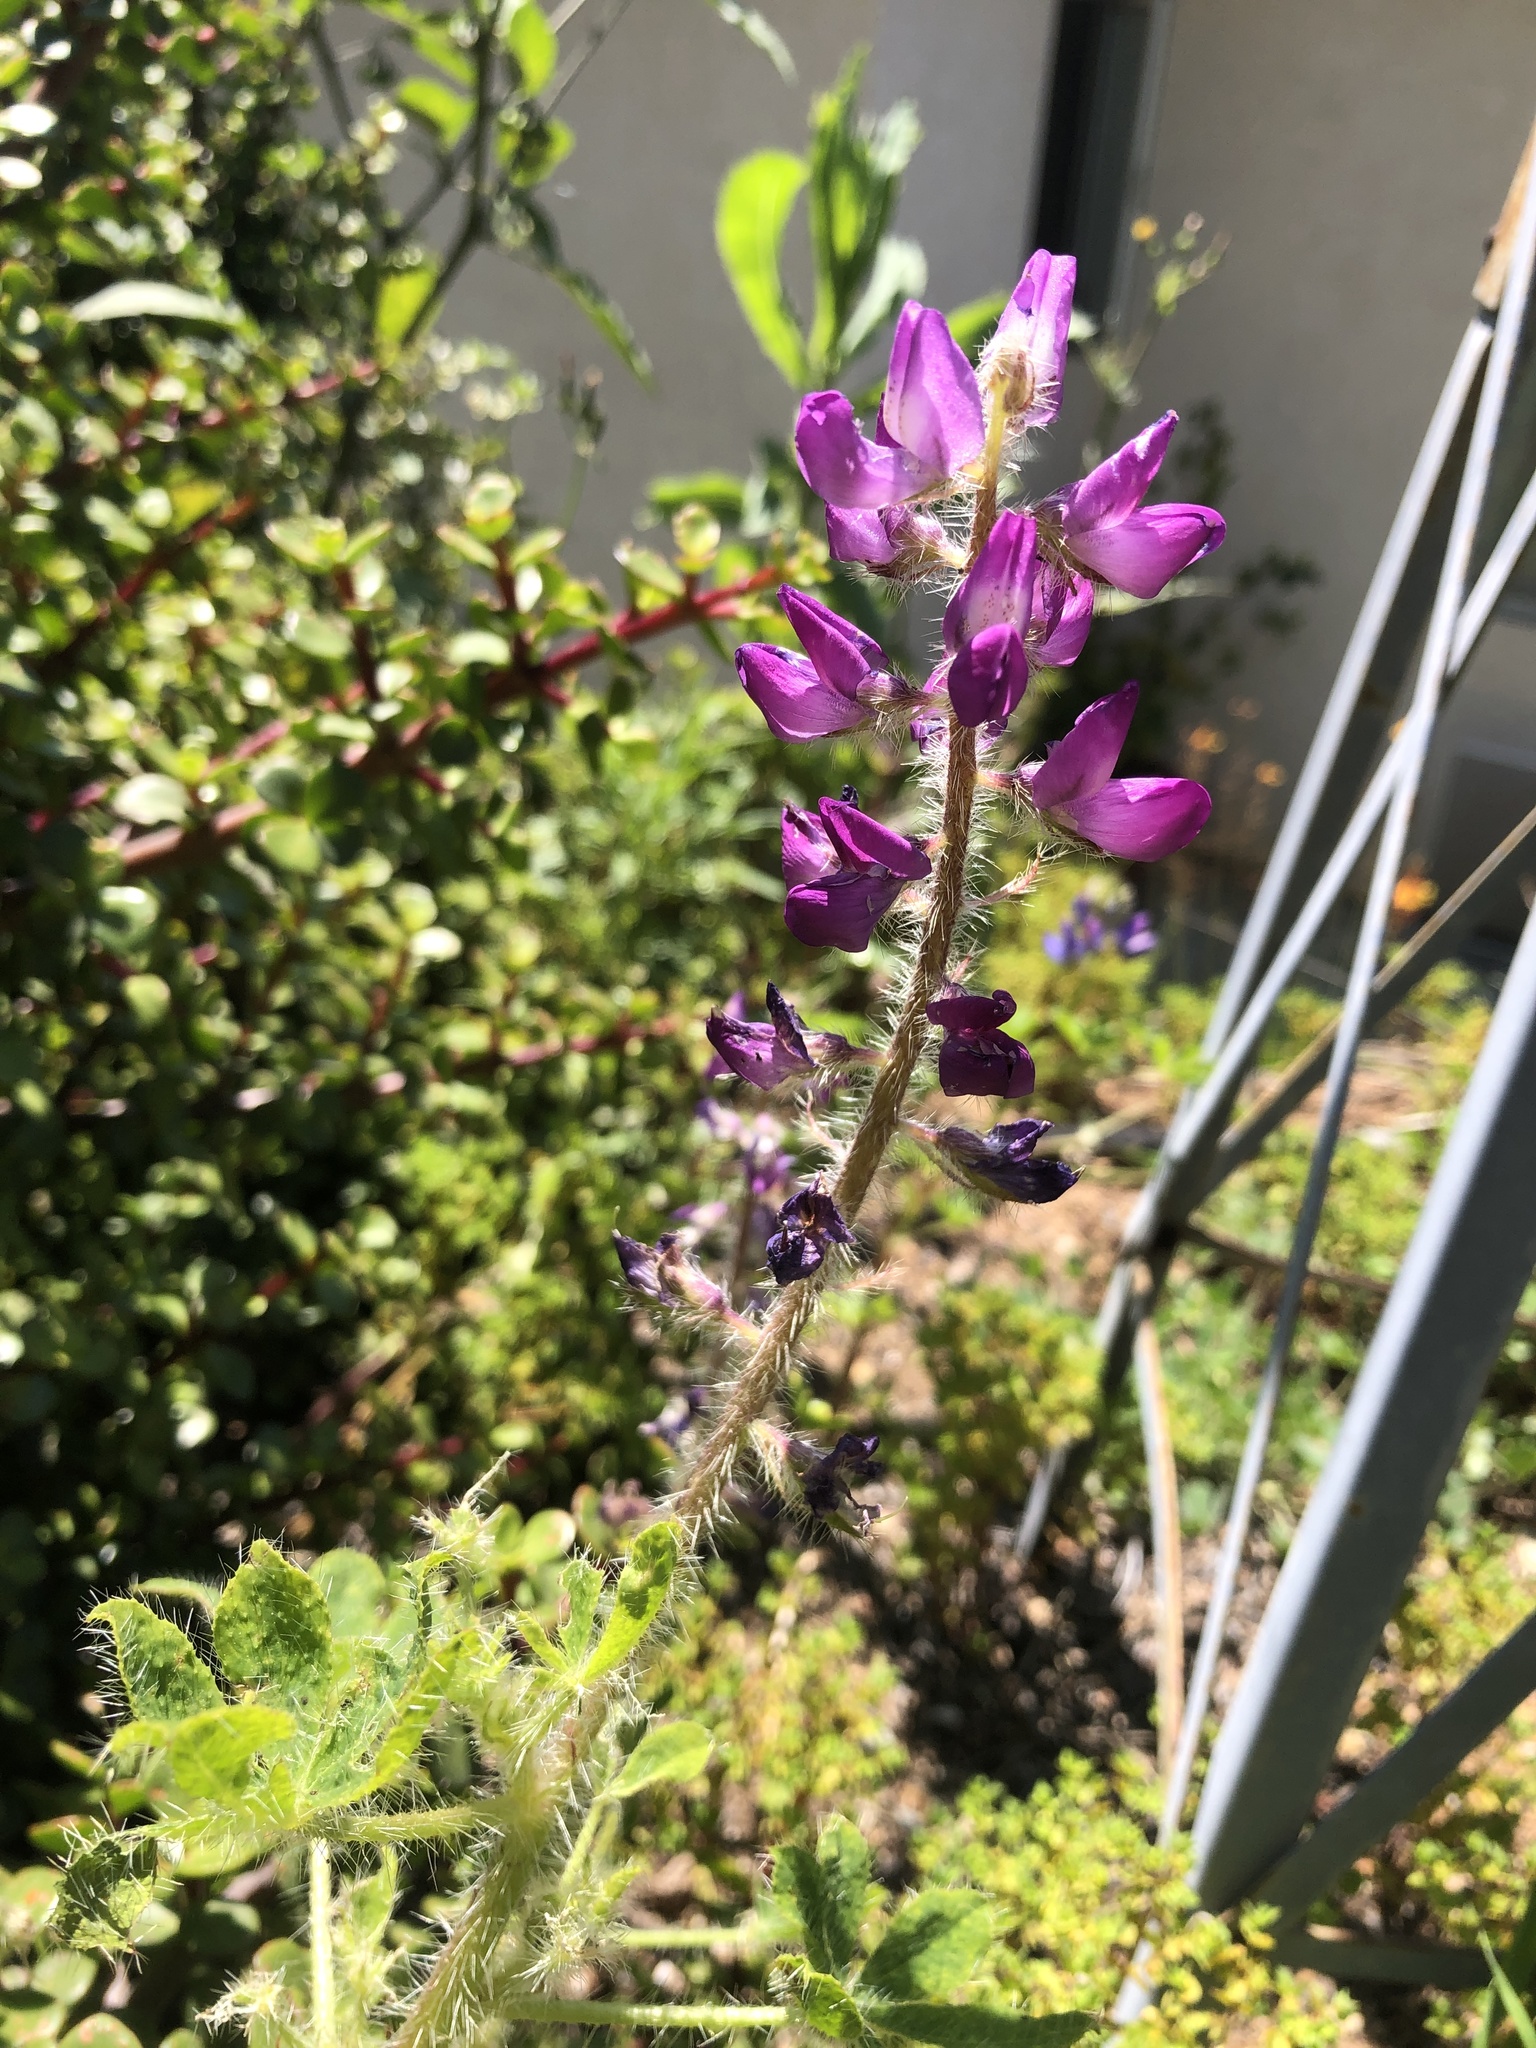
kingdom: Plantae
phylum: Tracheophyta
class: Magnoliopsida
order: Fabales
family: Fabaceae
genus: Lupinus
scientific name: Lupinus hirsutissimus
